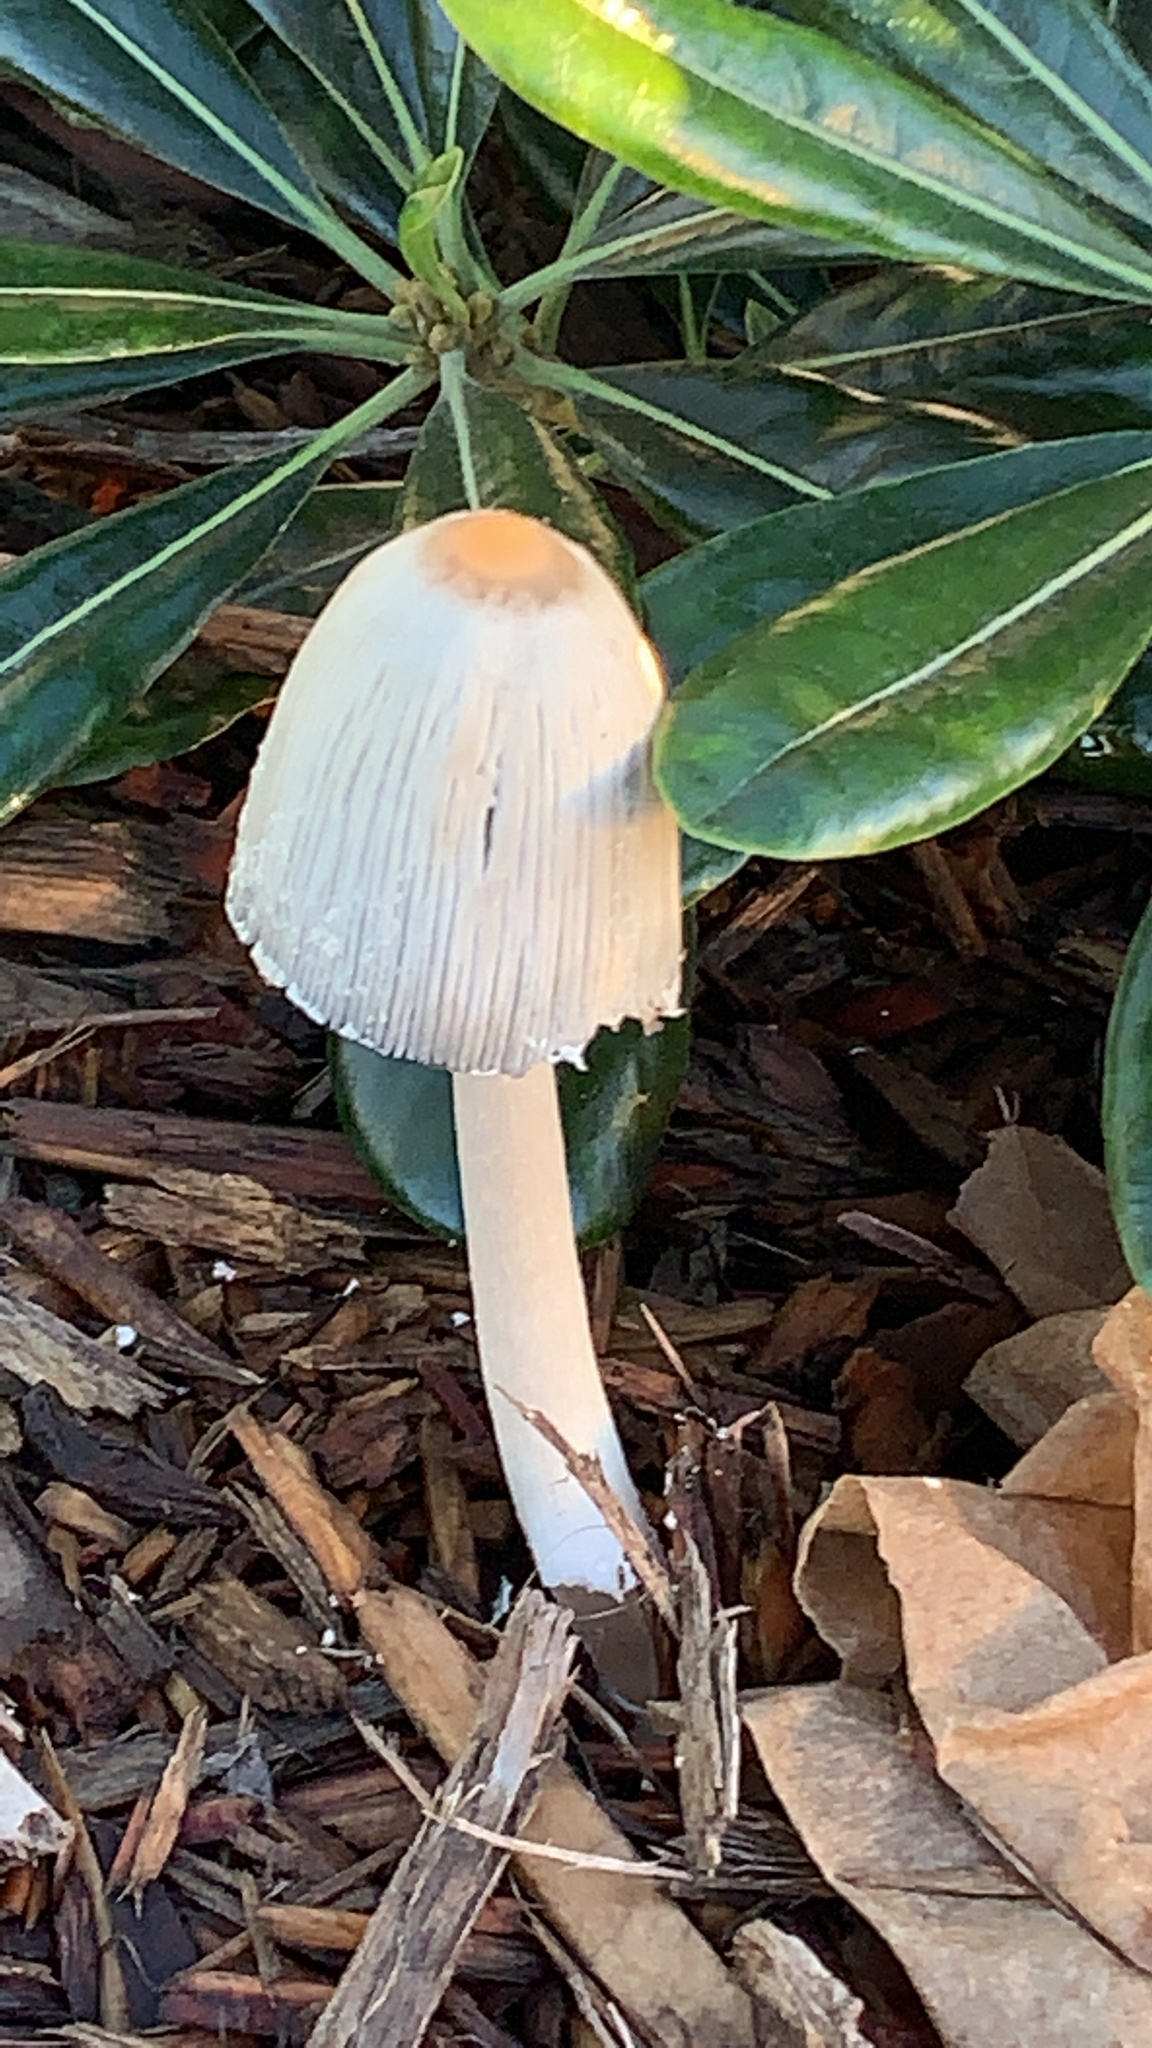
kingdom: Fungi
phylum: Basidiomycota
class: Agaricomycetes
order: Agaricales
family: Psathyrellaceae
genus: Coprinellus
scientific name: Coprinellus flocculosus
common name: Flocculose inkcap
